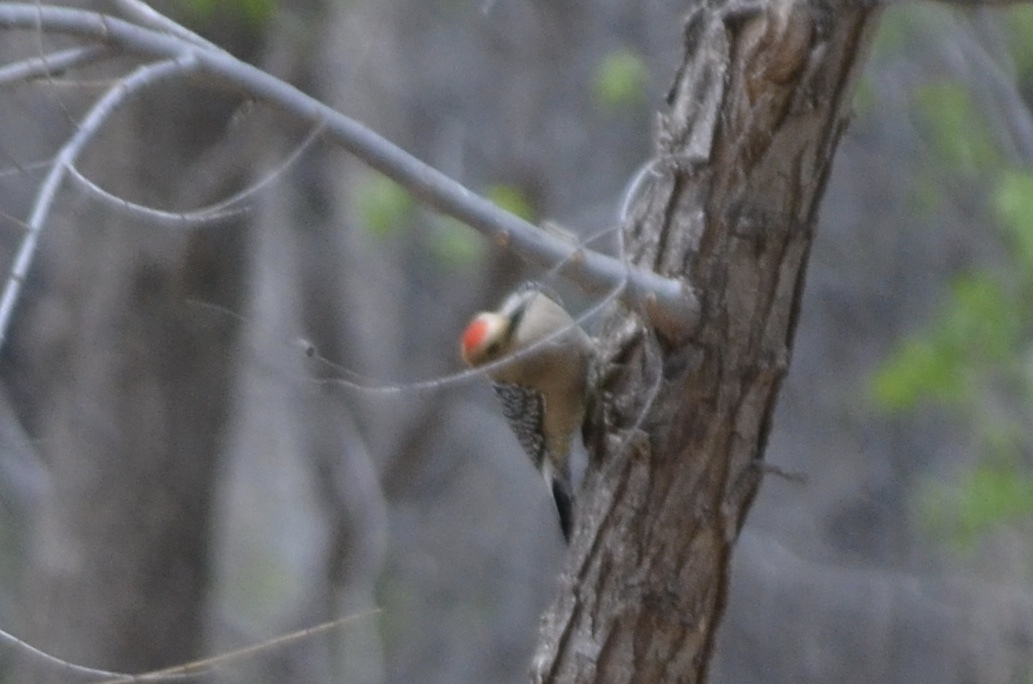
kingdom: Animalia
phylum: Chordata
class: Aves
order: Piciformes
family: Picidae
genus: Melanerpes
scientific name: Melanerpes uropygialis
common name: Gila woodpecker
